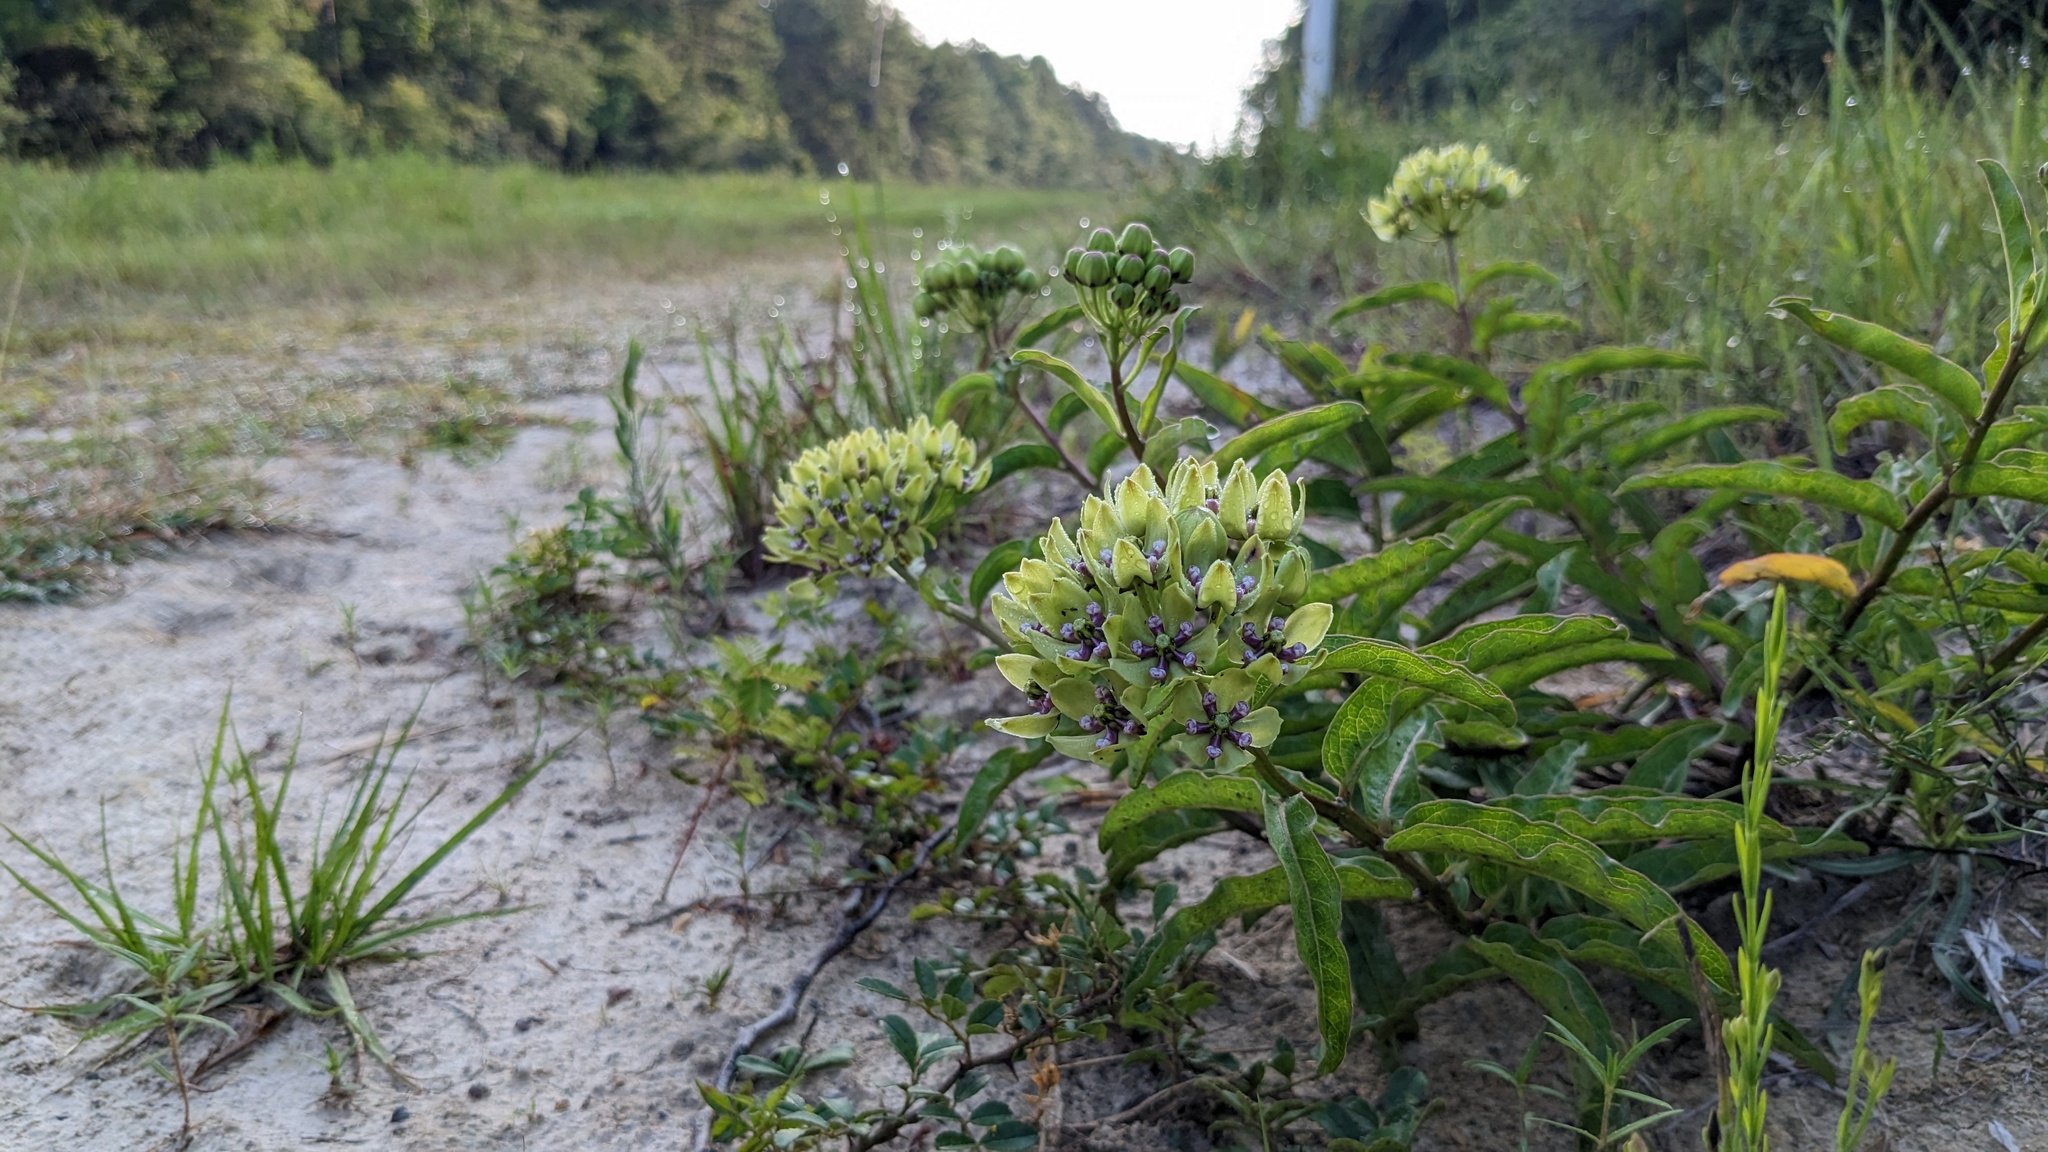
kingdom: Plantae
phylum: Tracheophyta
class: Magnoliopsida
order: Gentianales
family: Apocynaceae
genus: Asclepias
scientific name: Asclepias viridis
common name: Antelope-horns
